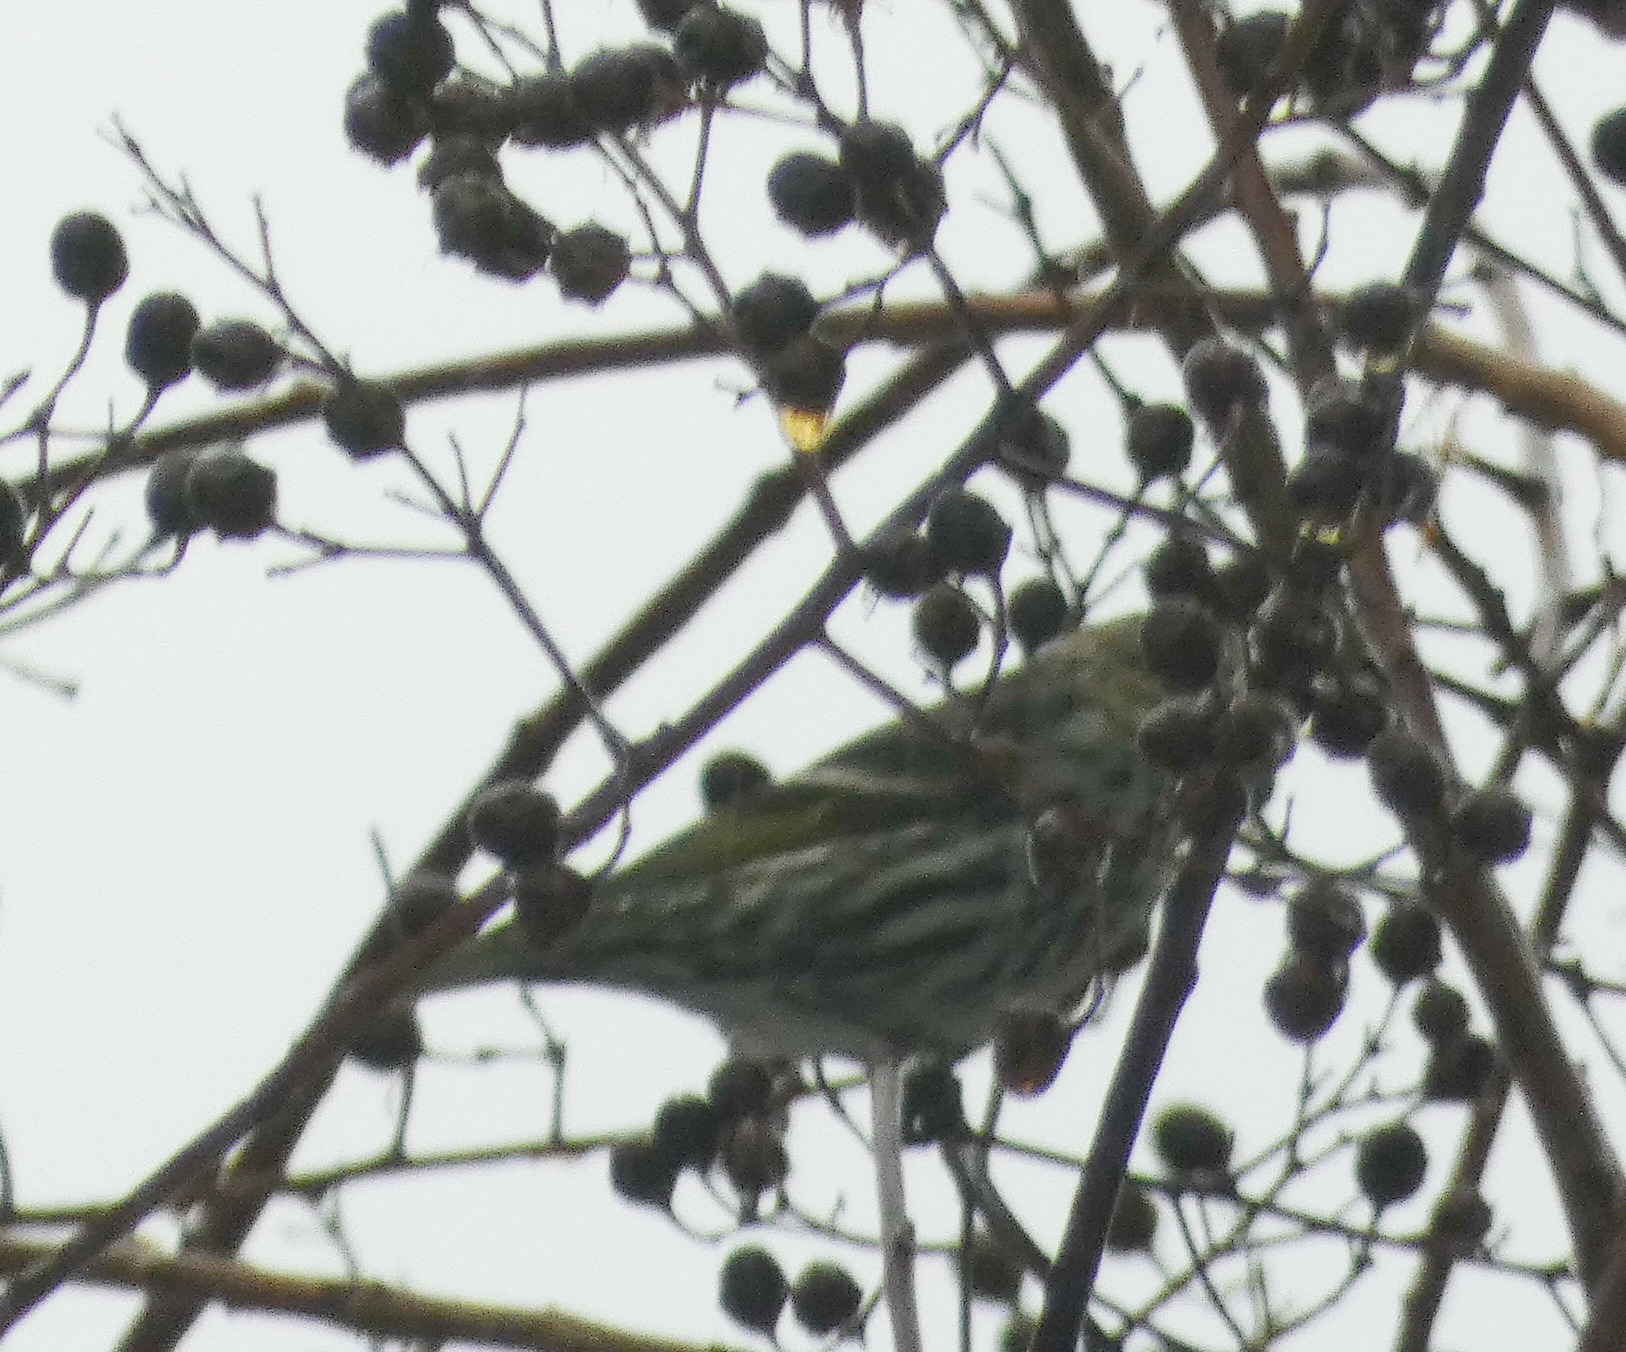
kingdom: Animalia
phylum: Chordata
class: Aves
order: Passeriformes
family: Fringillidae
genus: Spinus
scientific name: Spinus pinus
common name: Pine siskin
